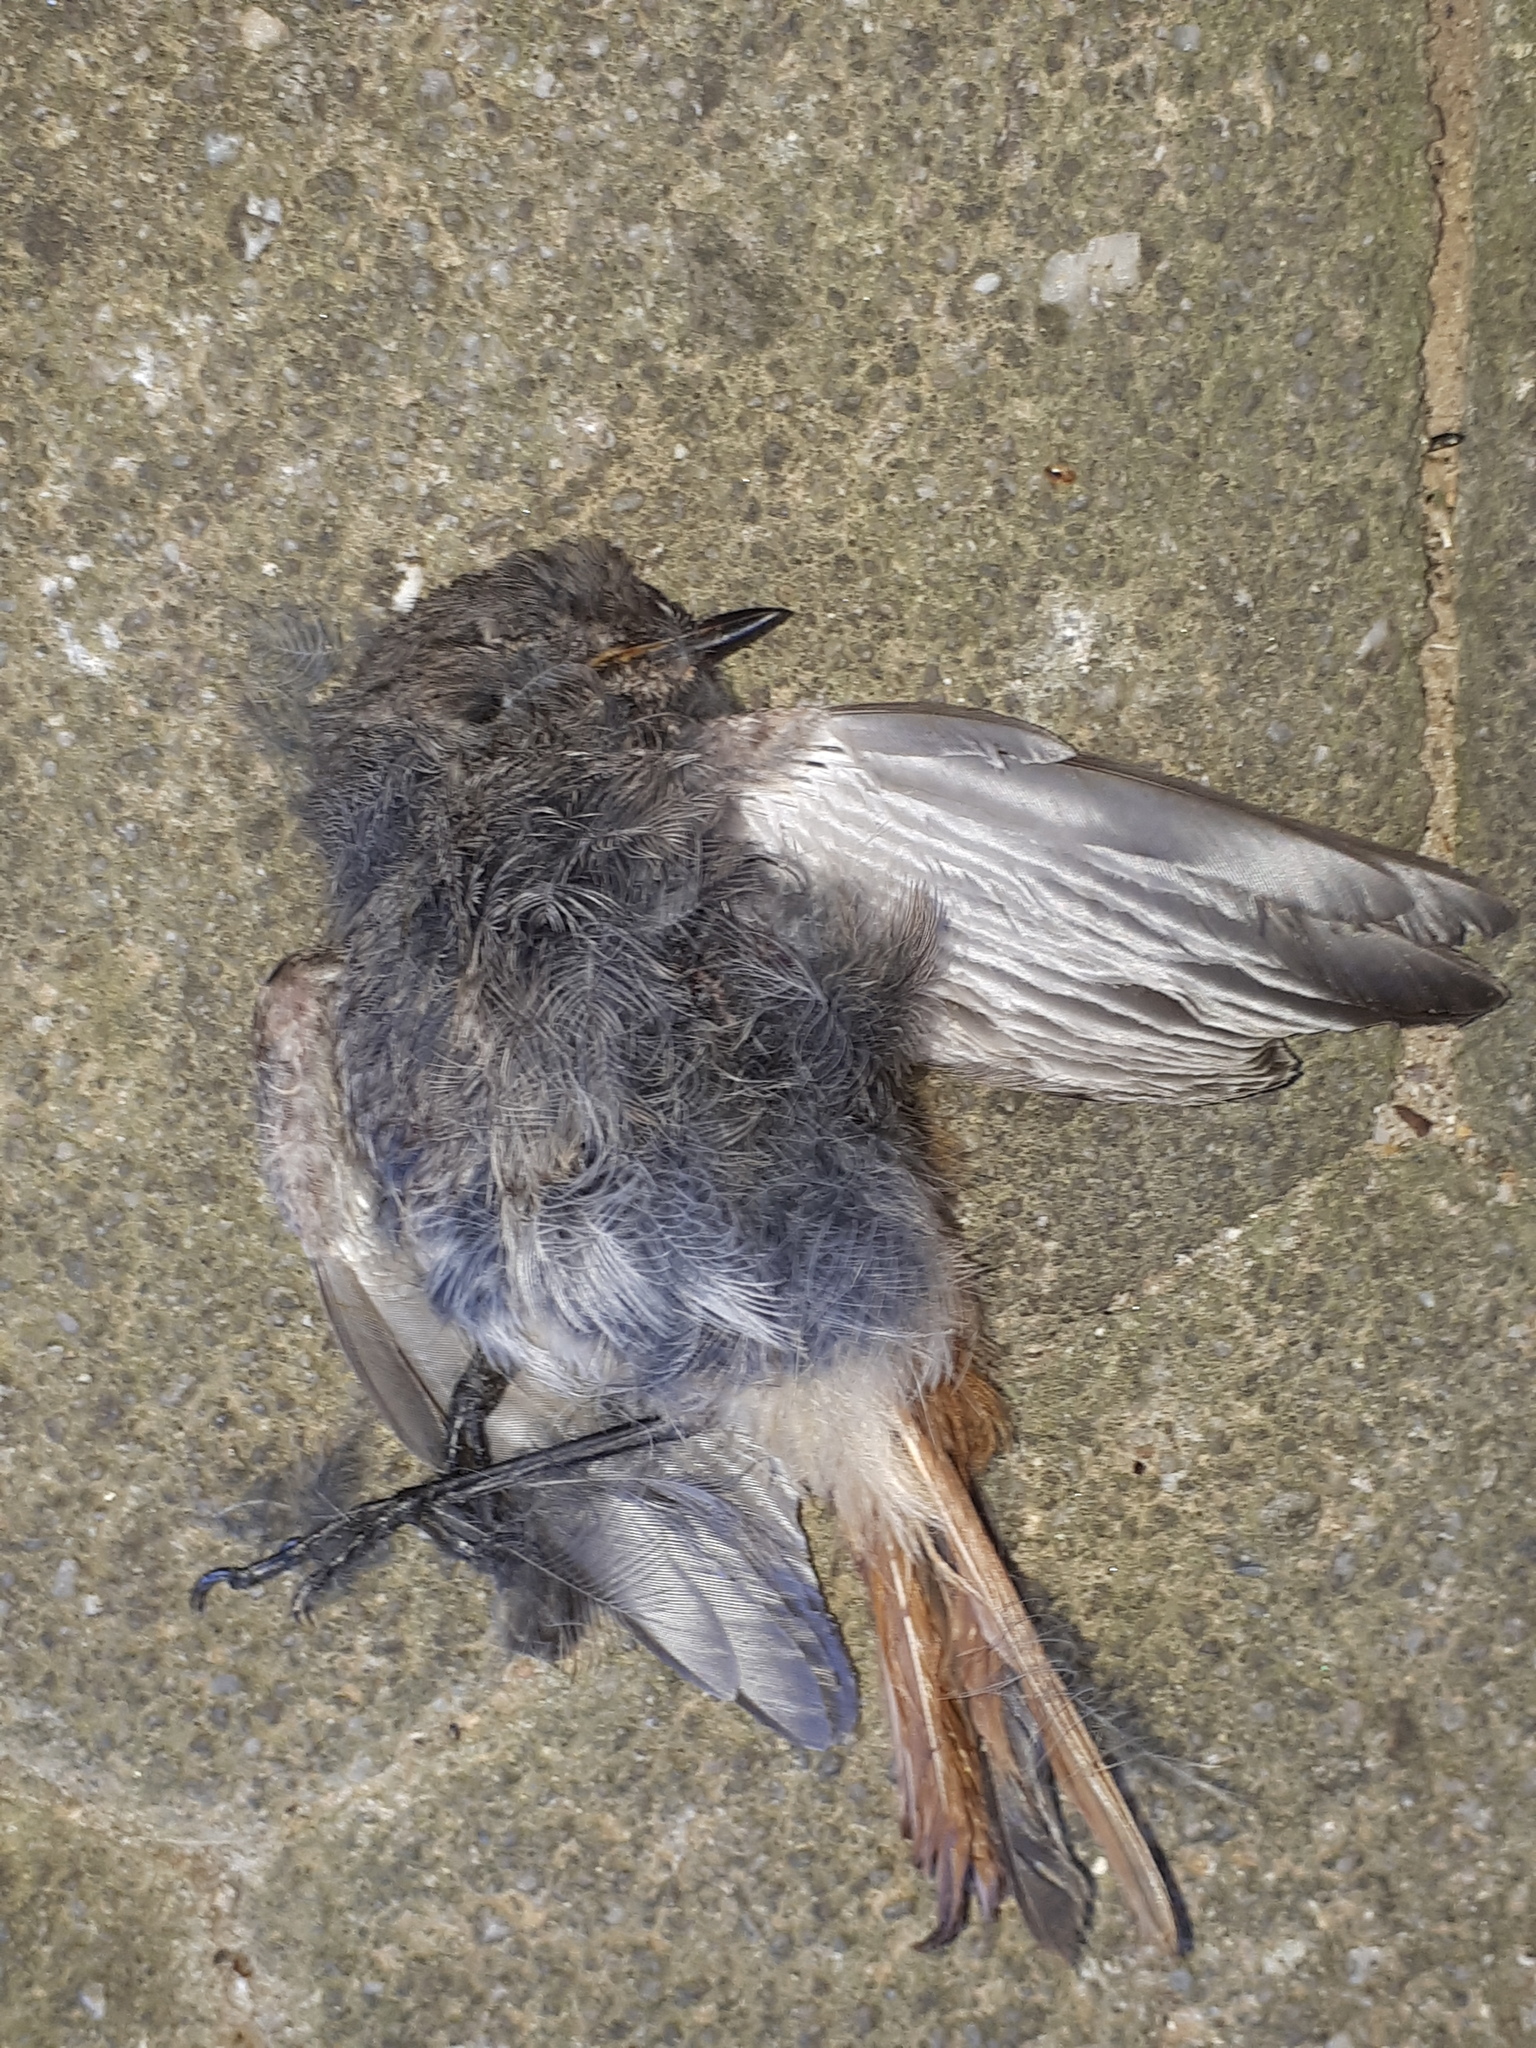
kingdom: Animalia
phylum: Chordata
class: Aves
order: Passeriformes
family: Muscicapidae
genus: Phoenicurus
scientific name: Phoenicurus ochruros
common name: Black redstart
